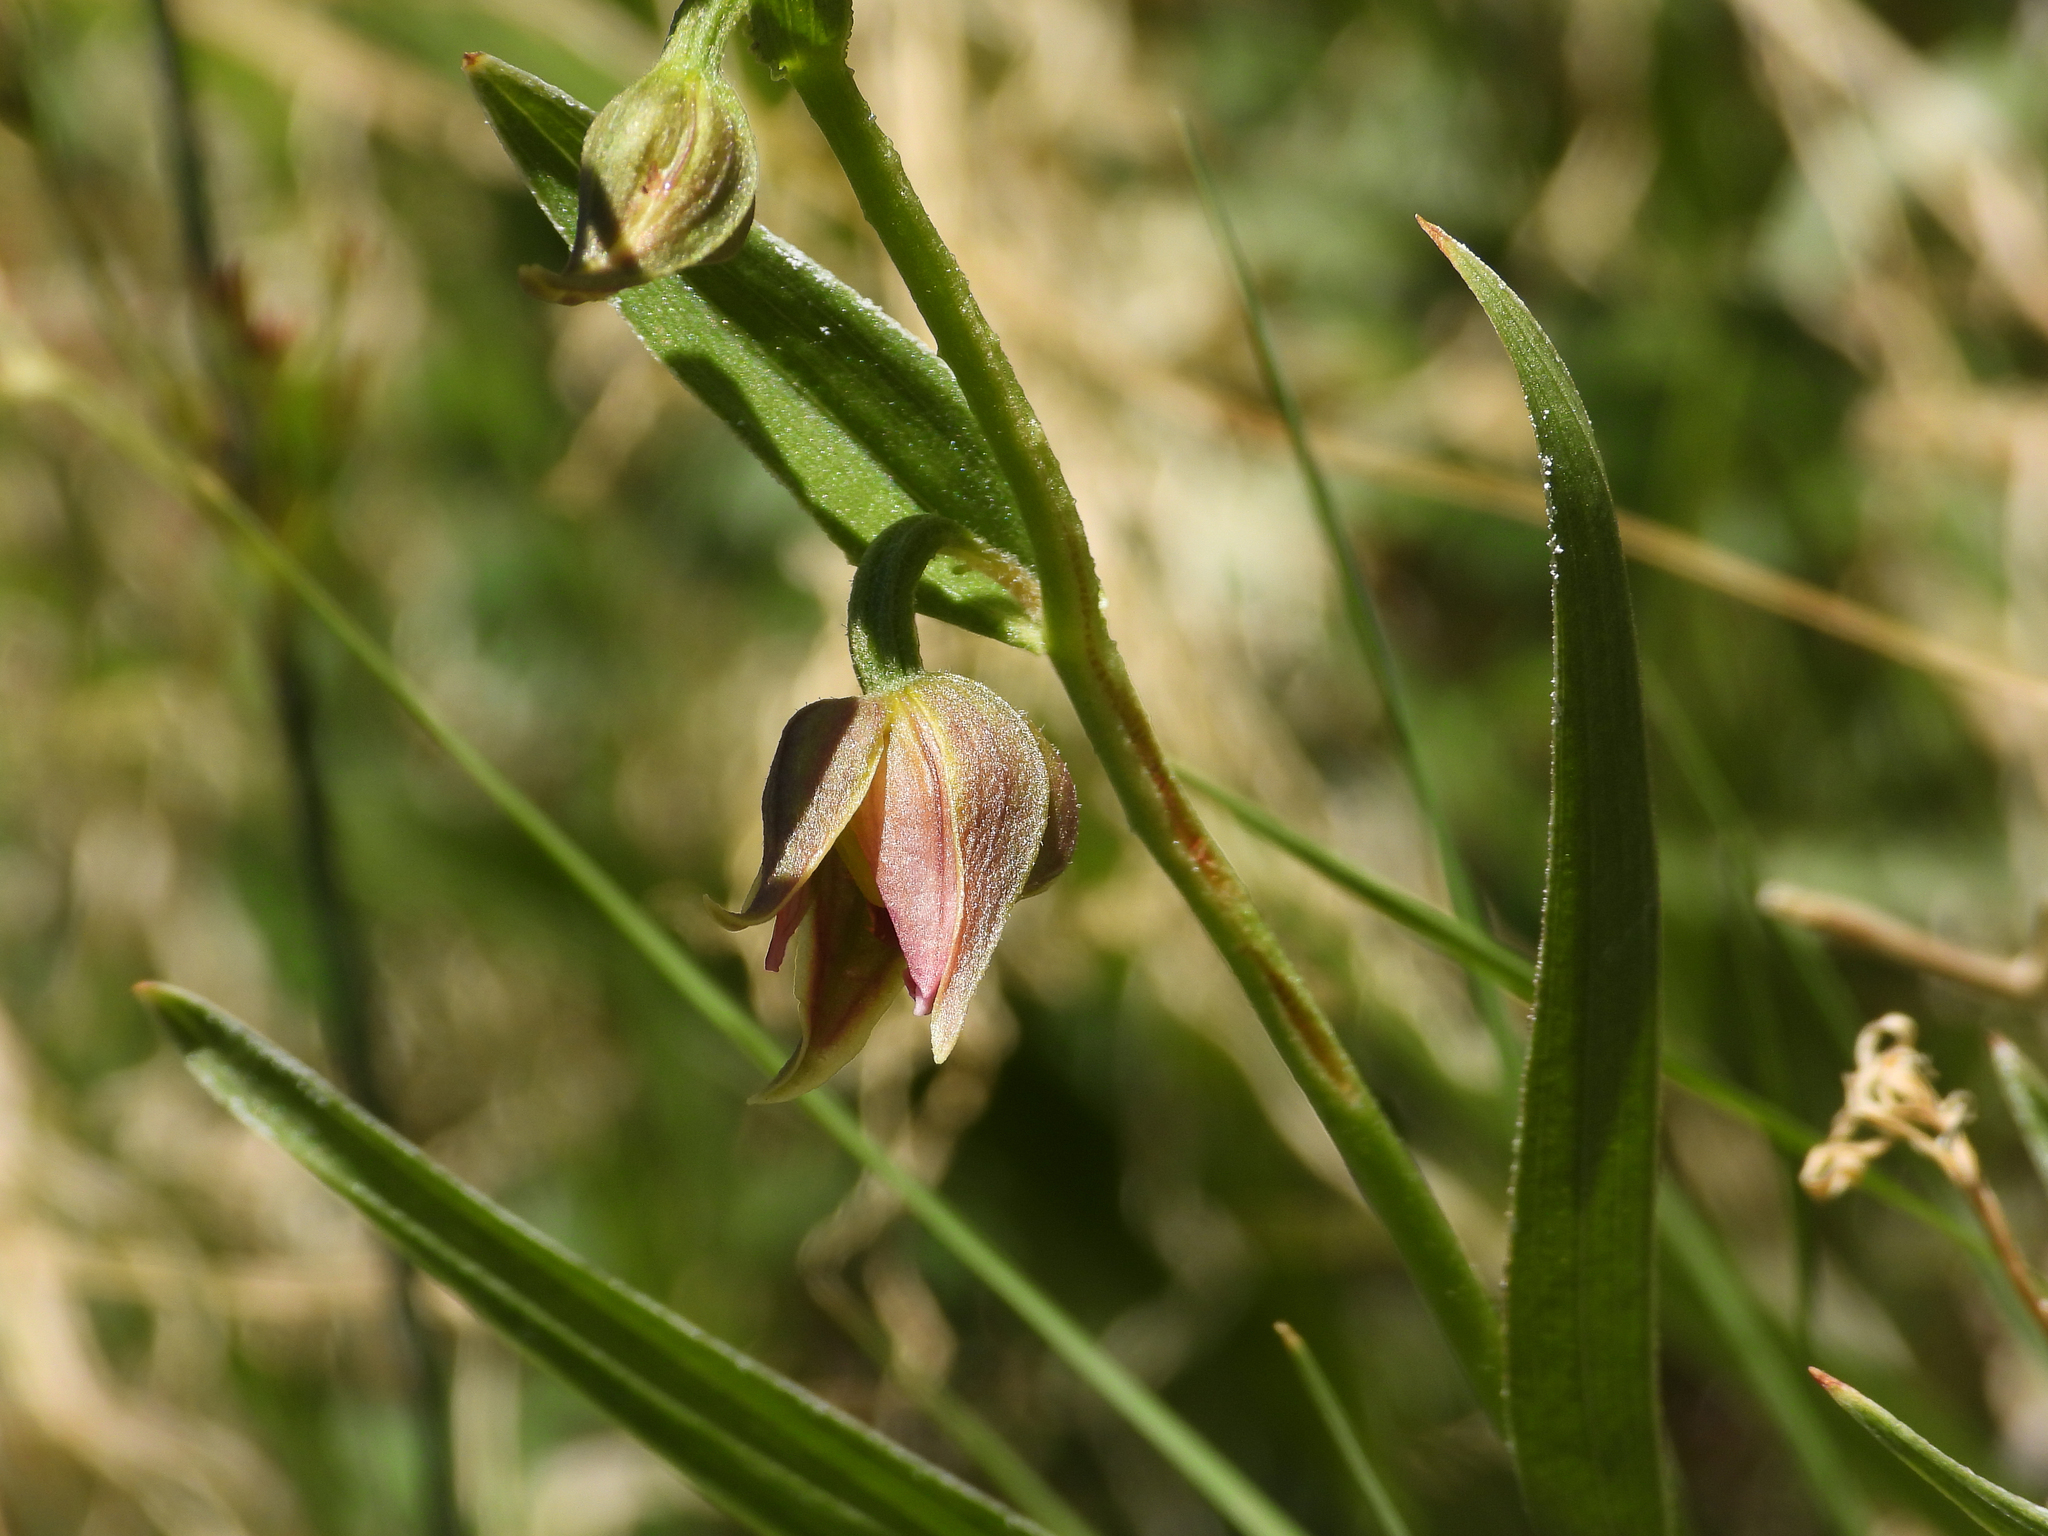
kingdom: Plantae
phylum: Tracheophyta
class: Liliopsida
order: Asparagales
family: Orchidaceae
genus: Epipactis
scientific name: Epipactis gigantea
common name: Chatterbox
